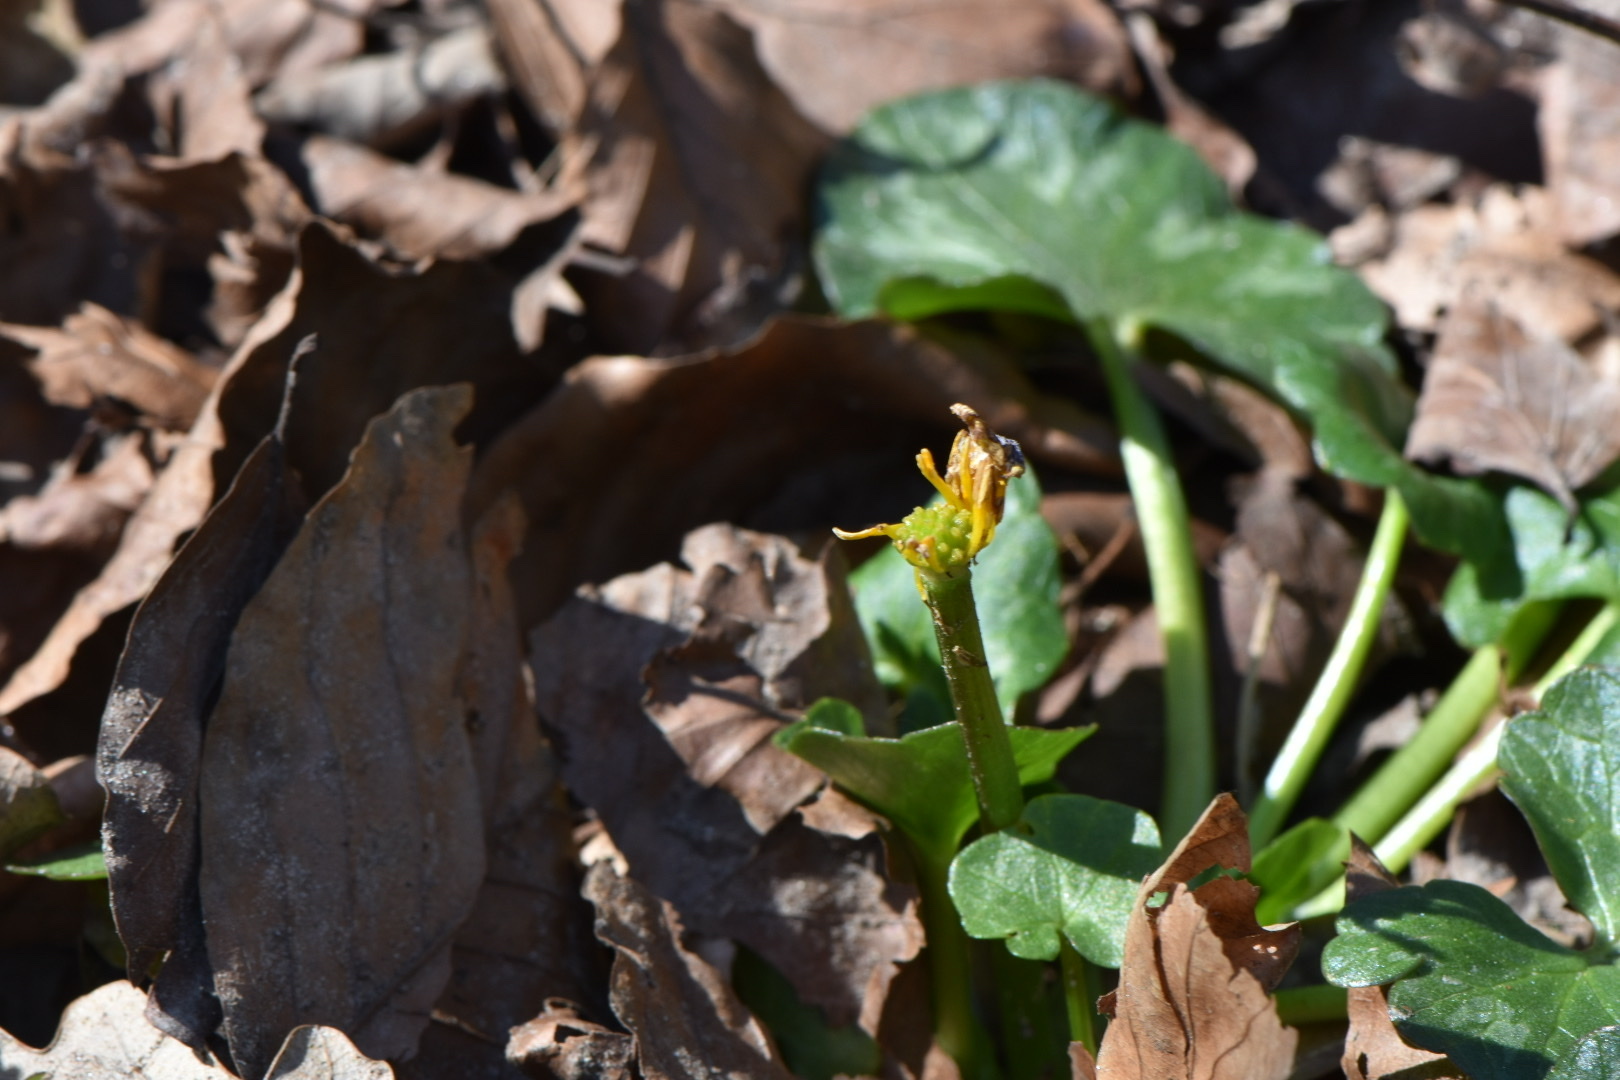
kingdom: Plantae
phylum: Tracheophyta
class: Magnoliopsida
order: Ranunculales
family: Ranunculaceae
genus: Ficaria
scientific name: Ficaria ambigua
